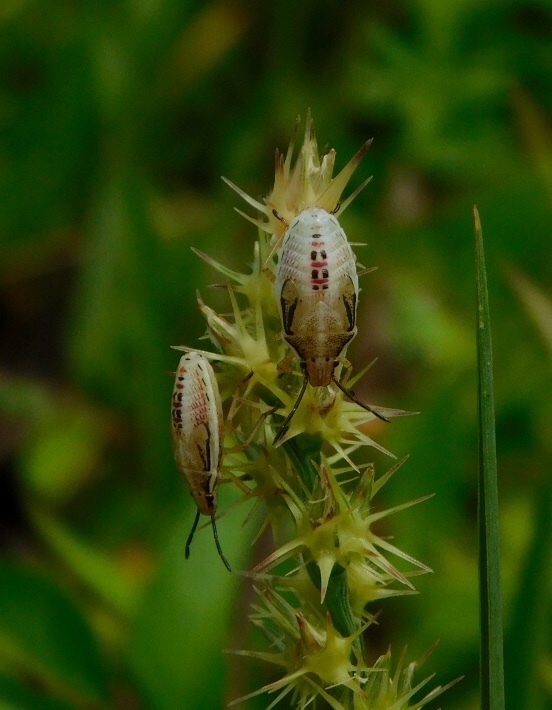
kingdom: Animalia
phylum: Arthropoda
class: Insecta
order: Hemiptera
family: Pentatomidae
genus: Oebalus
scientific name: Oebalus pugnax
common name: Rice stink bug
